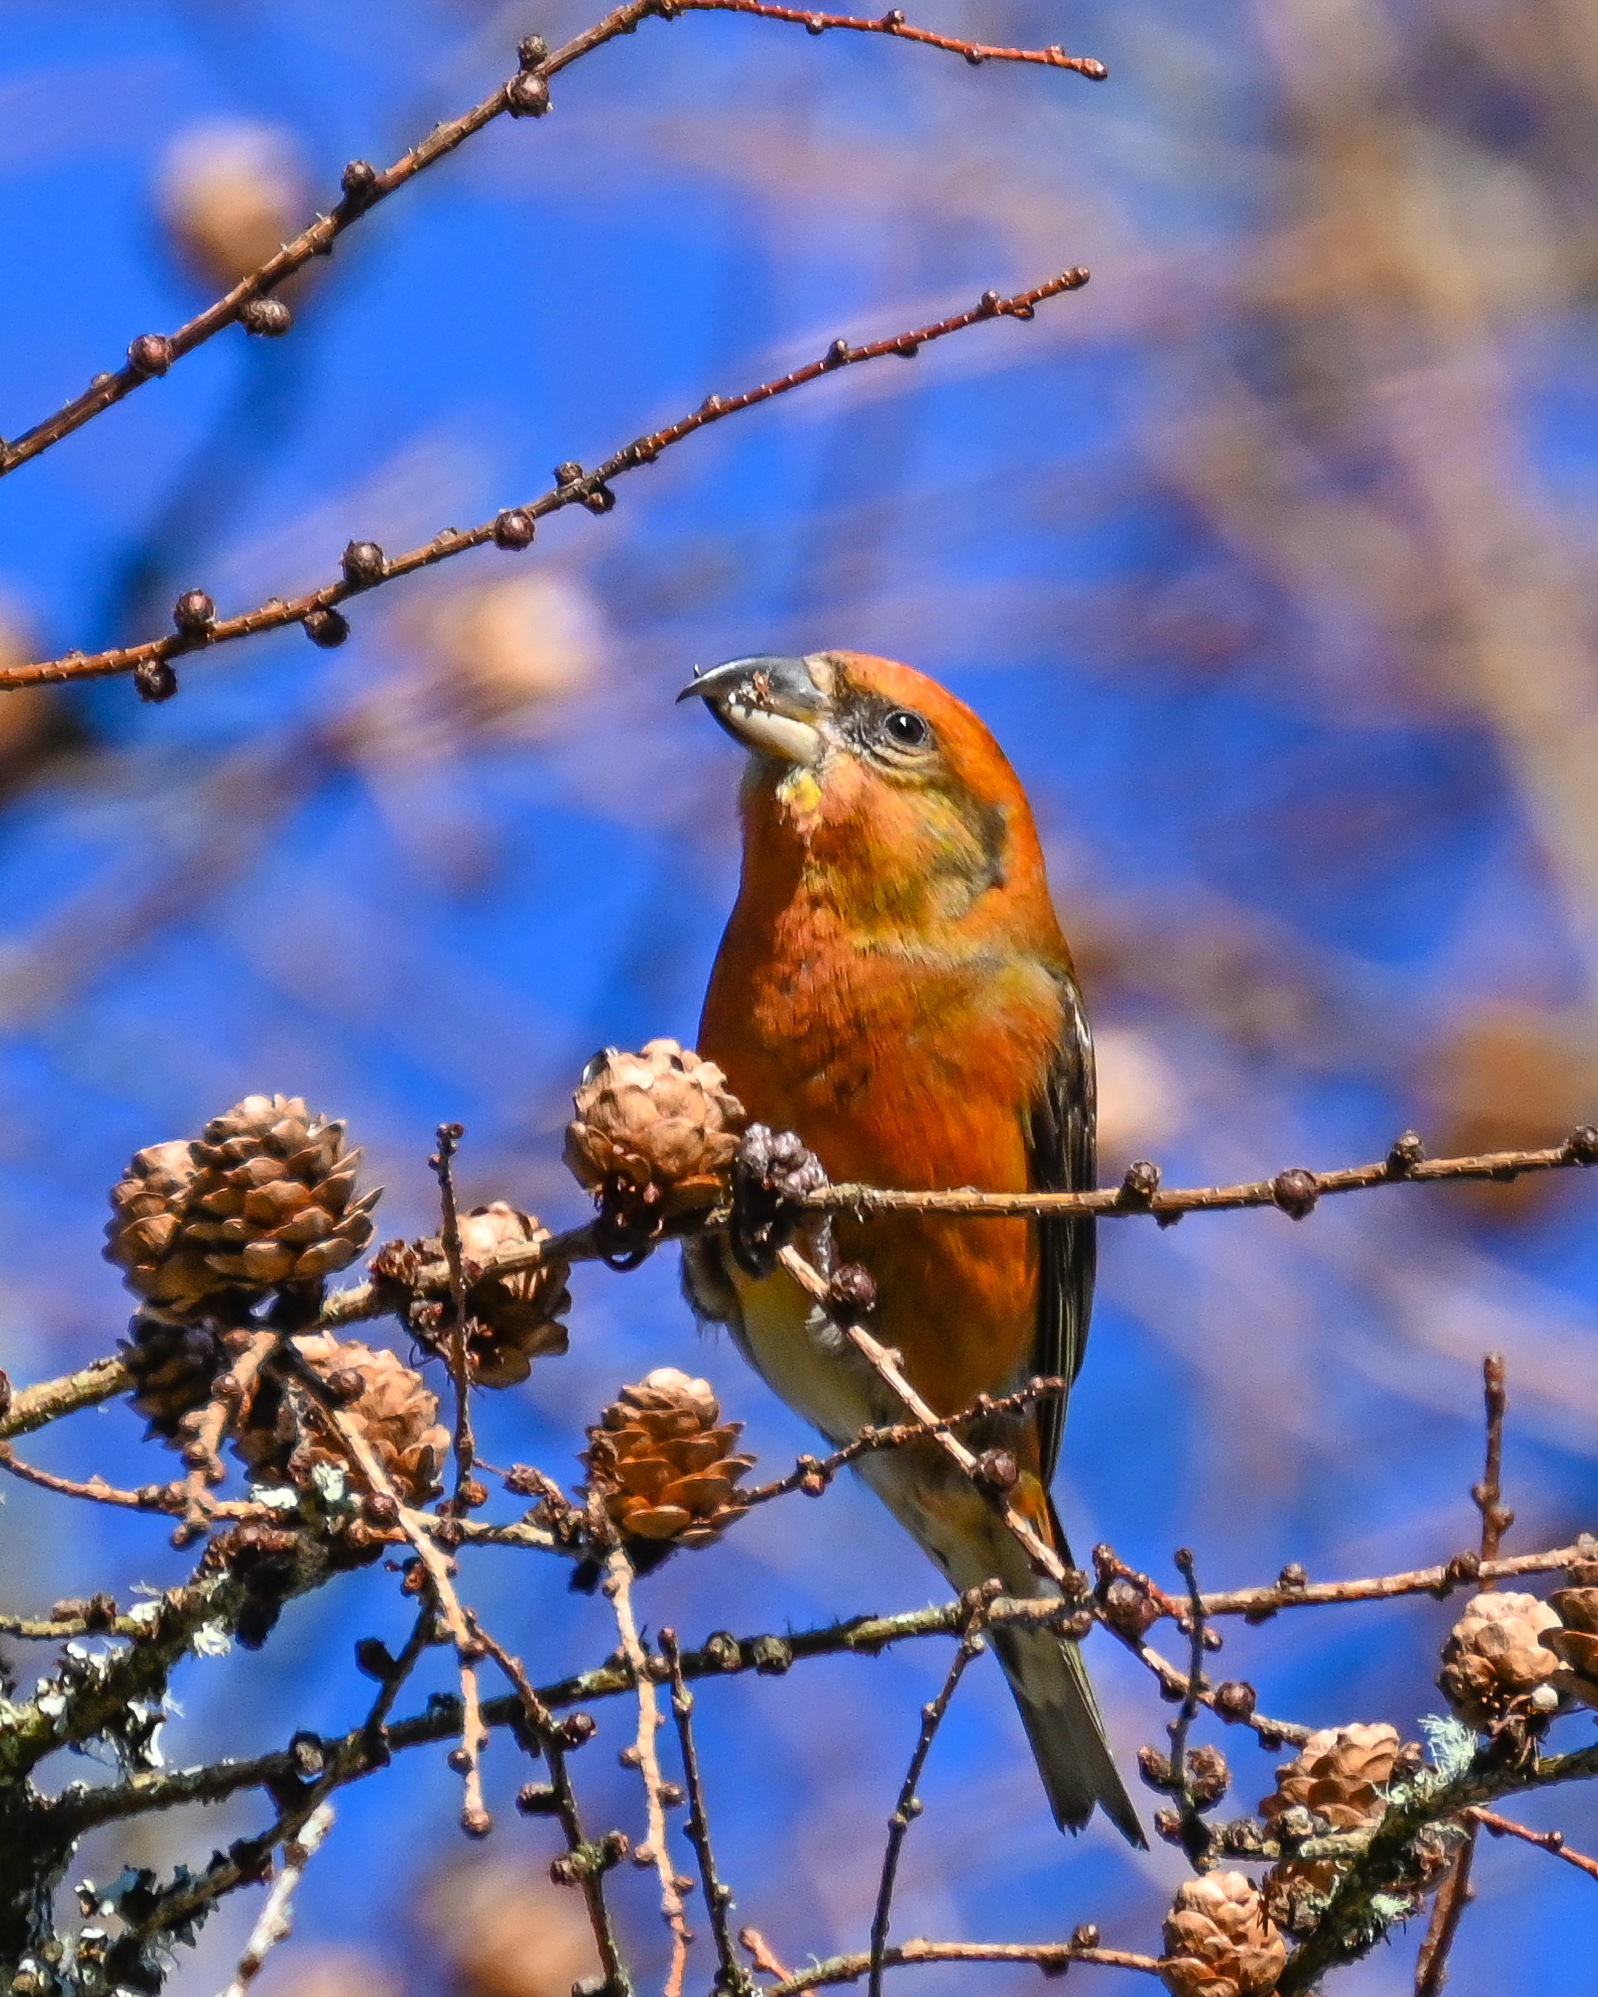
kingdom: Animalia
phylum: Chordata
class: Aves
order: Passeriformes
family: Fringillidae
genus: Loxia
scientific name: Loxia curvirostra
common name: Red crossbill
